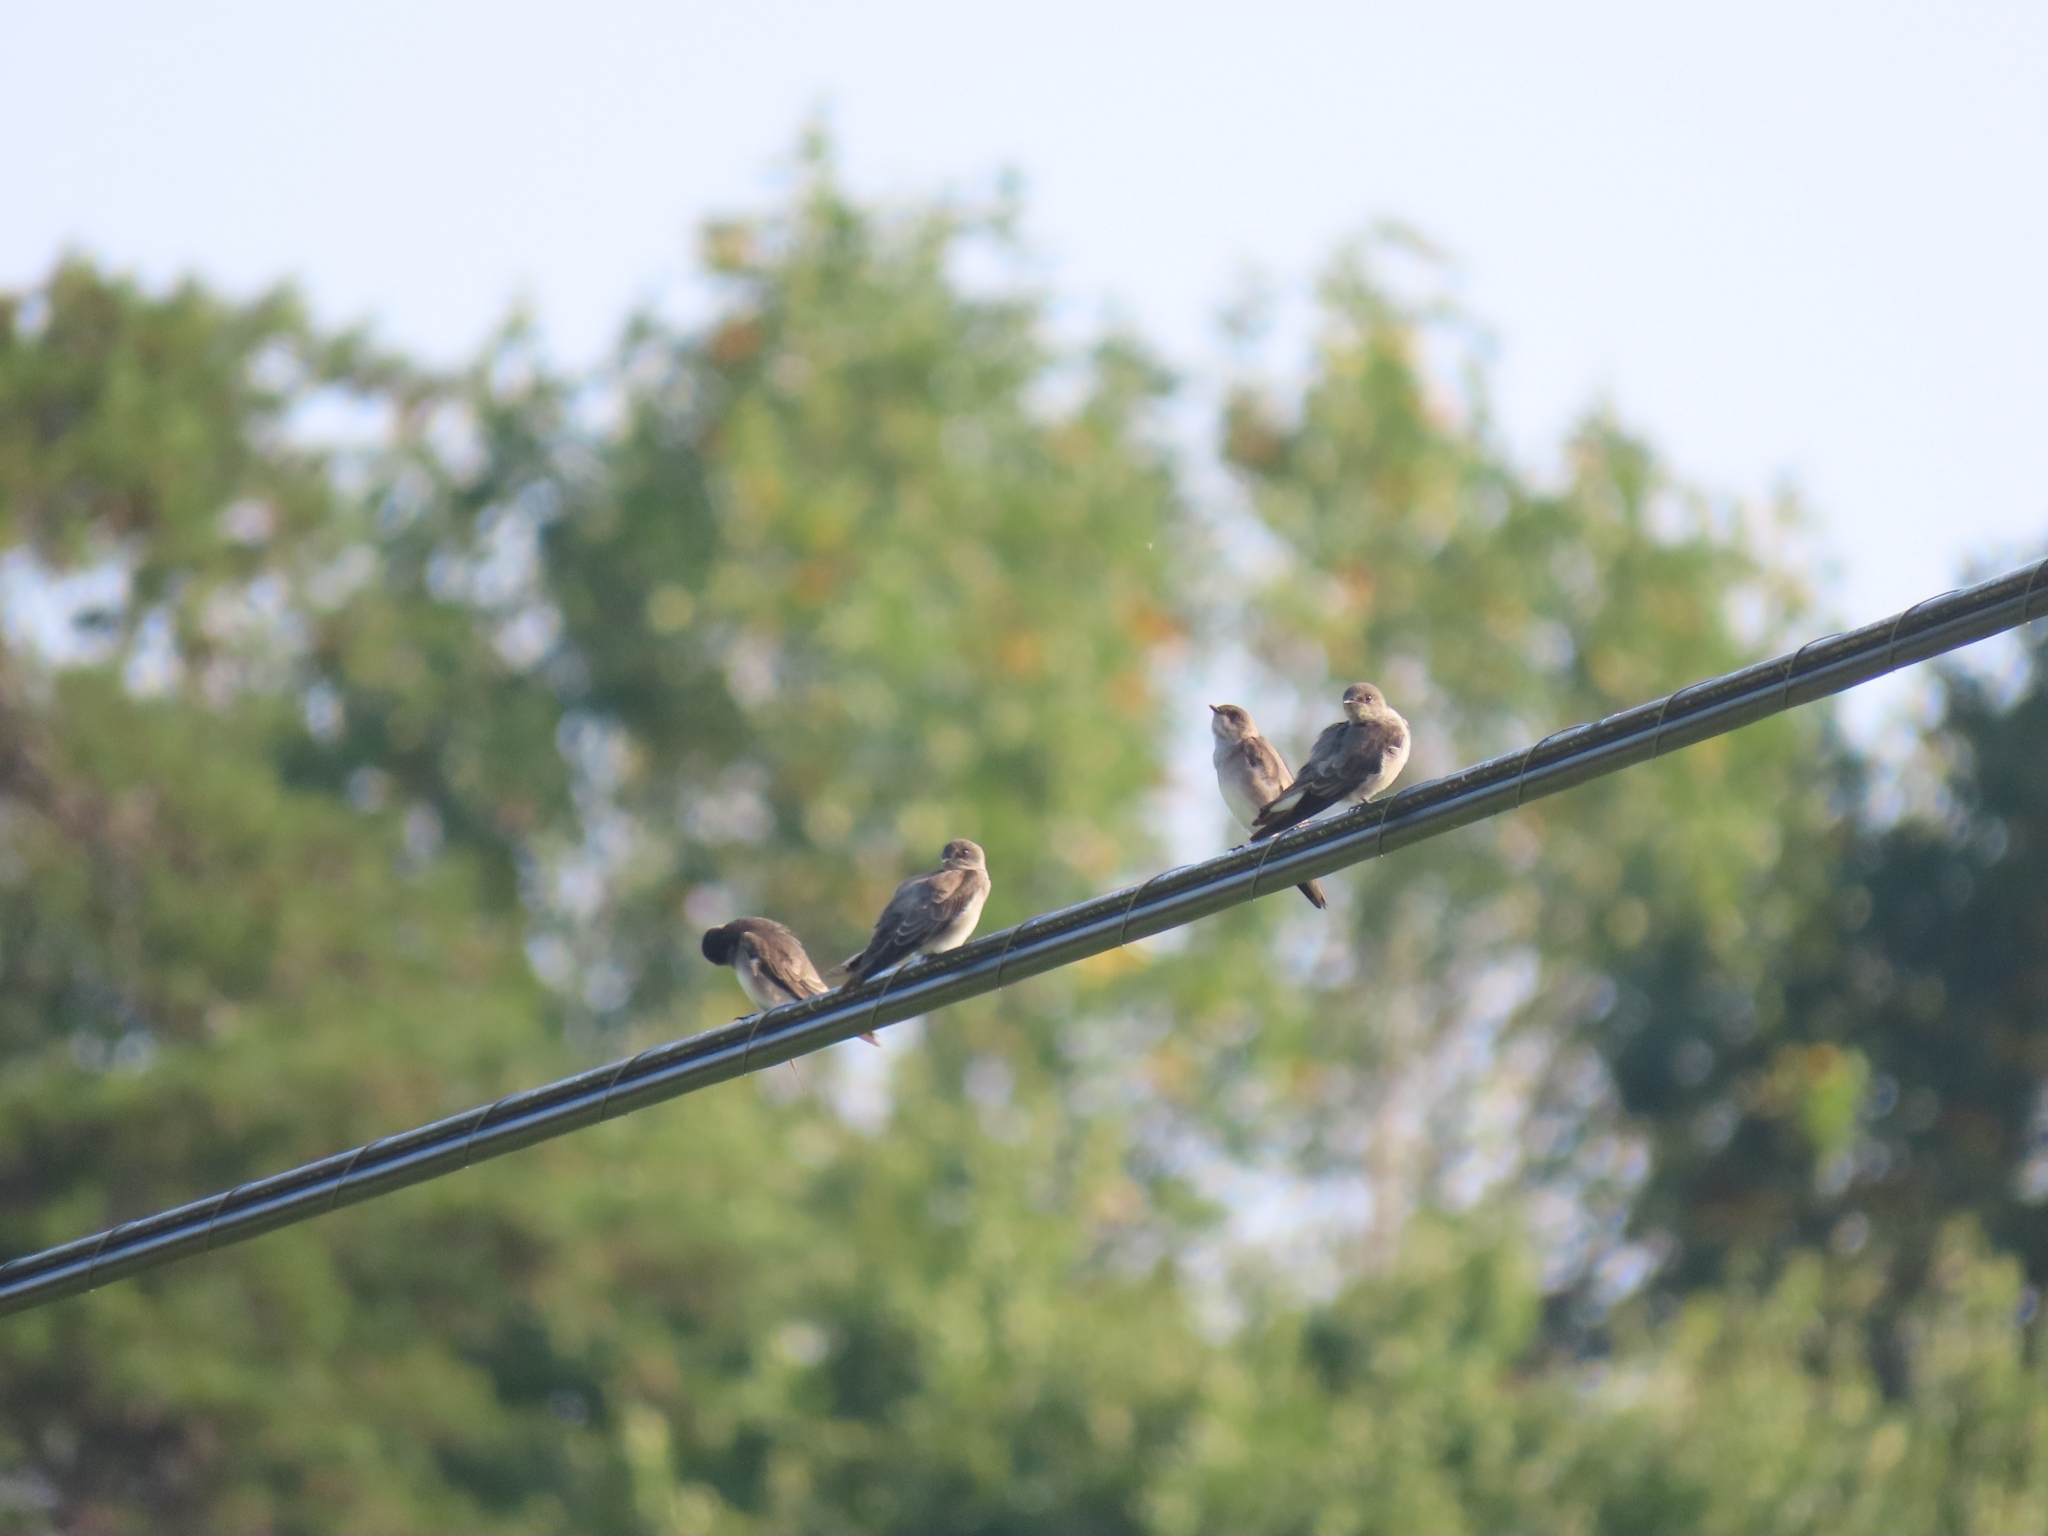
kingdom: Animalia
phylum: Chordata
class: Aves
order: Passeriformes
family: Hirundinidae
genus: Stelgidopteryx
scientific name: Stelgidopteryx serripennis
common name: Northern rough-winged swallow
